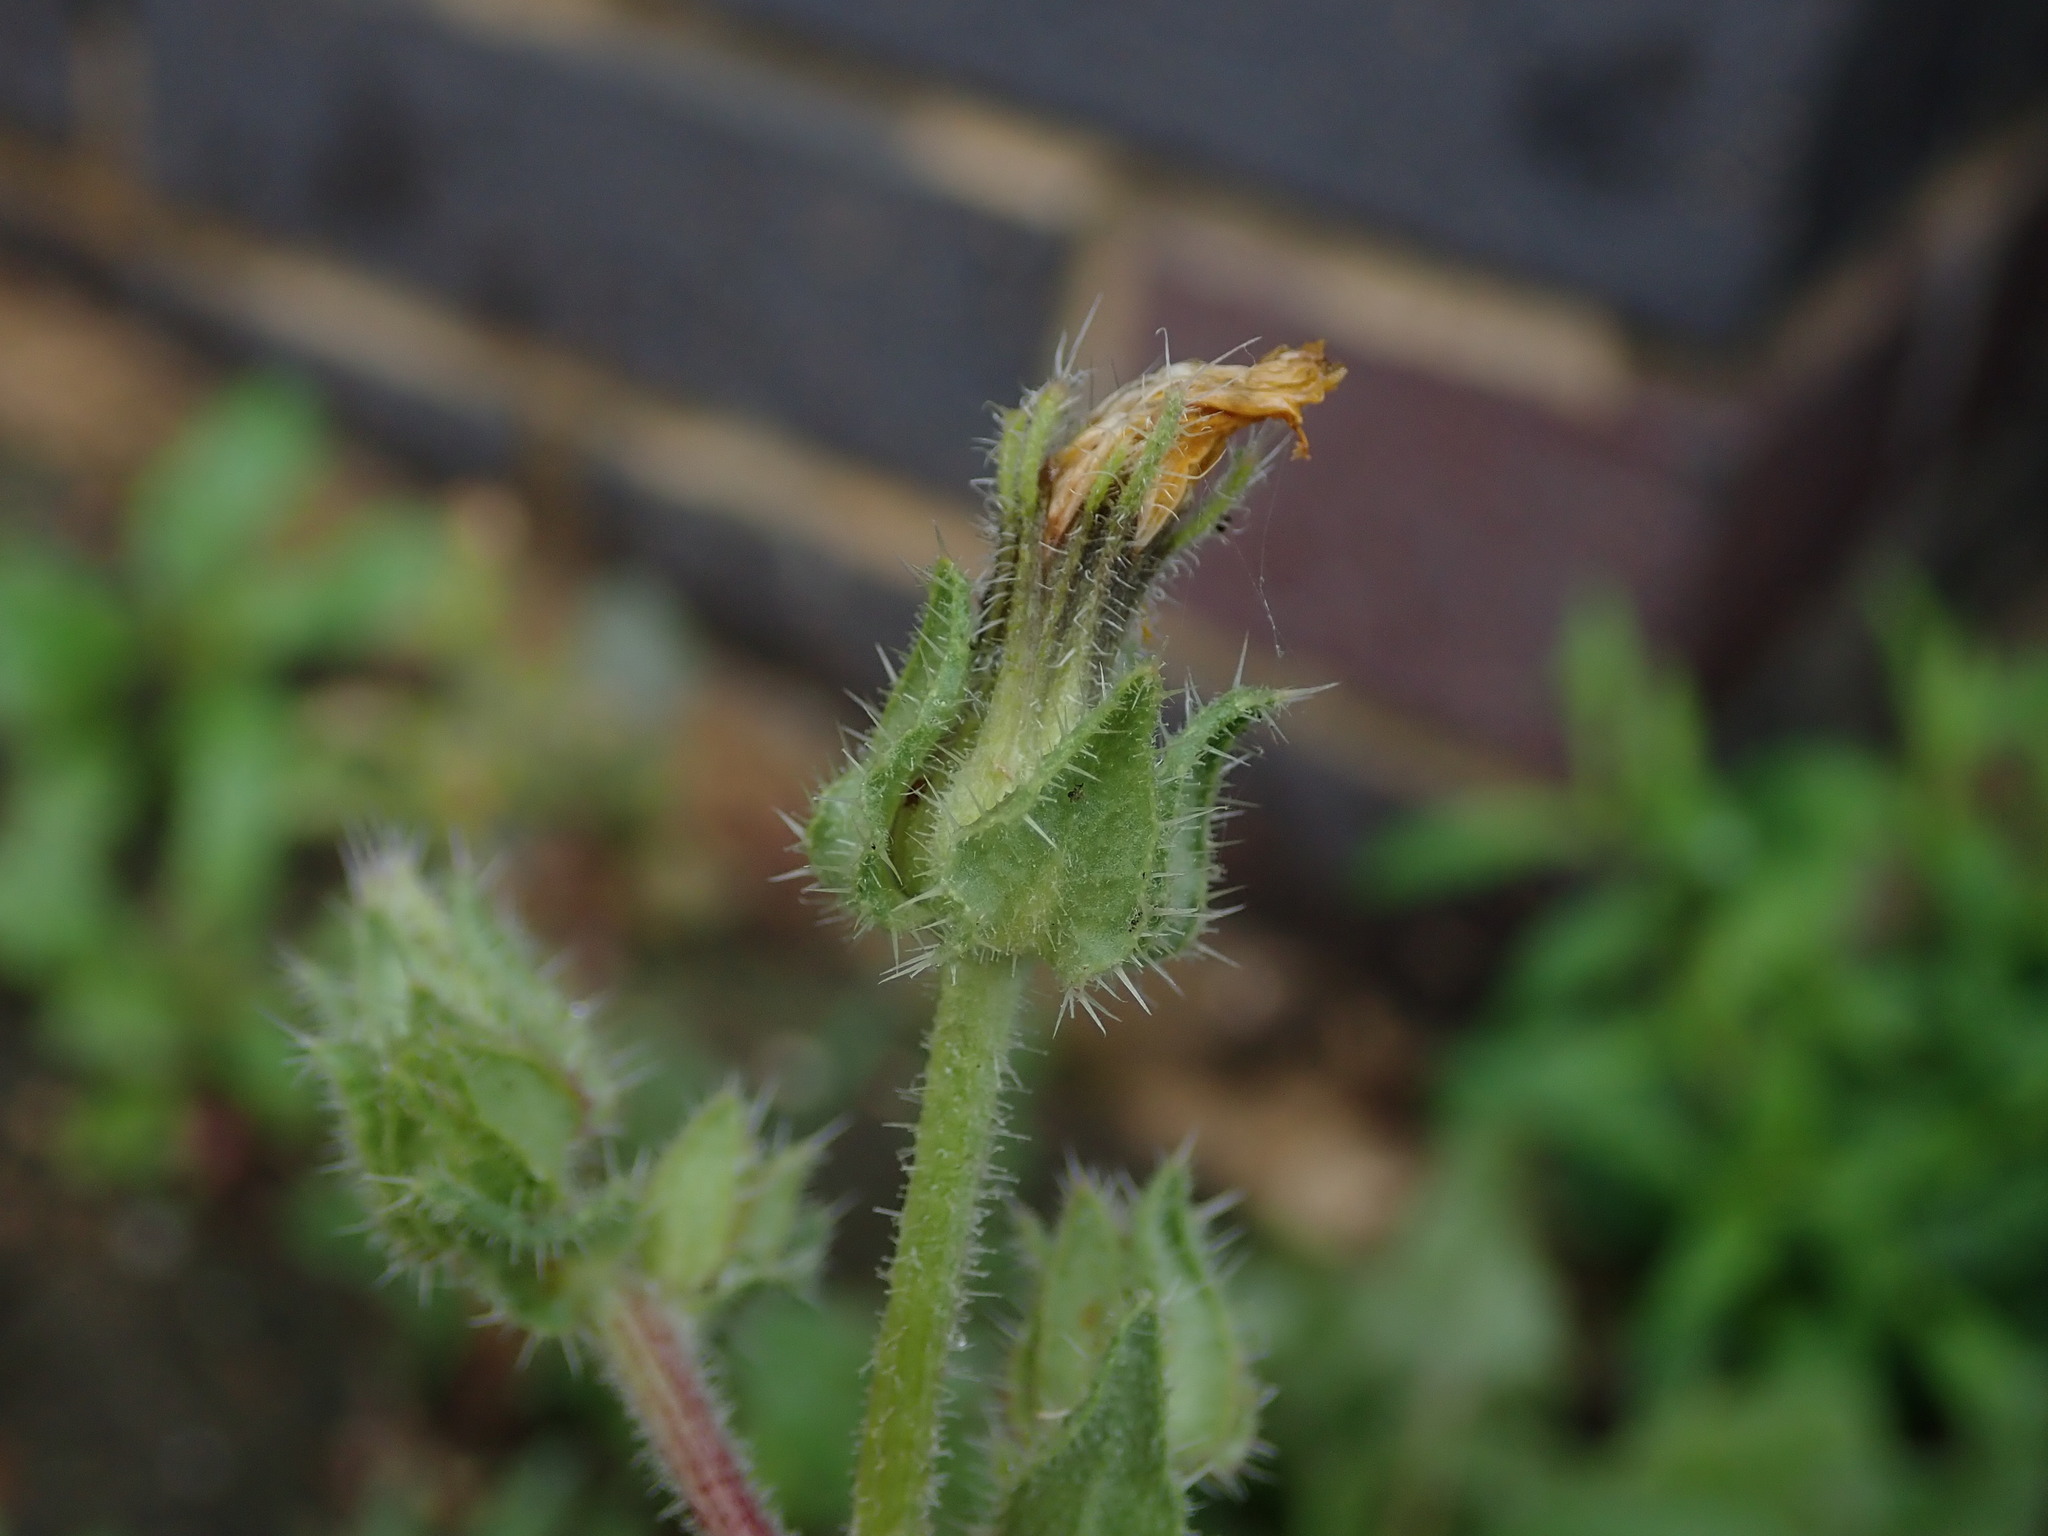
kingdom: Plantae
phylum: Tracheophyta
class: Magnoliopsida
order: Asterales
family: Asteraceae
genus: Helminthotheca
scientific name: Helminthotheca echioides
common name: Ox-tongue
